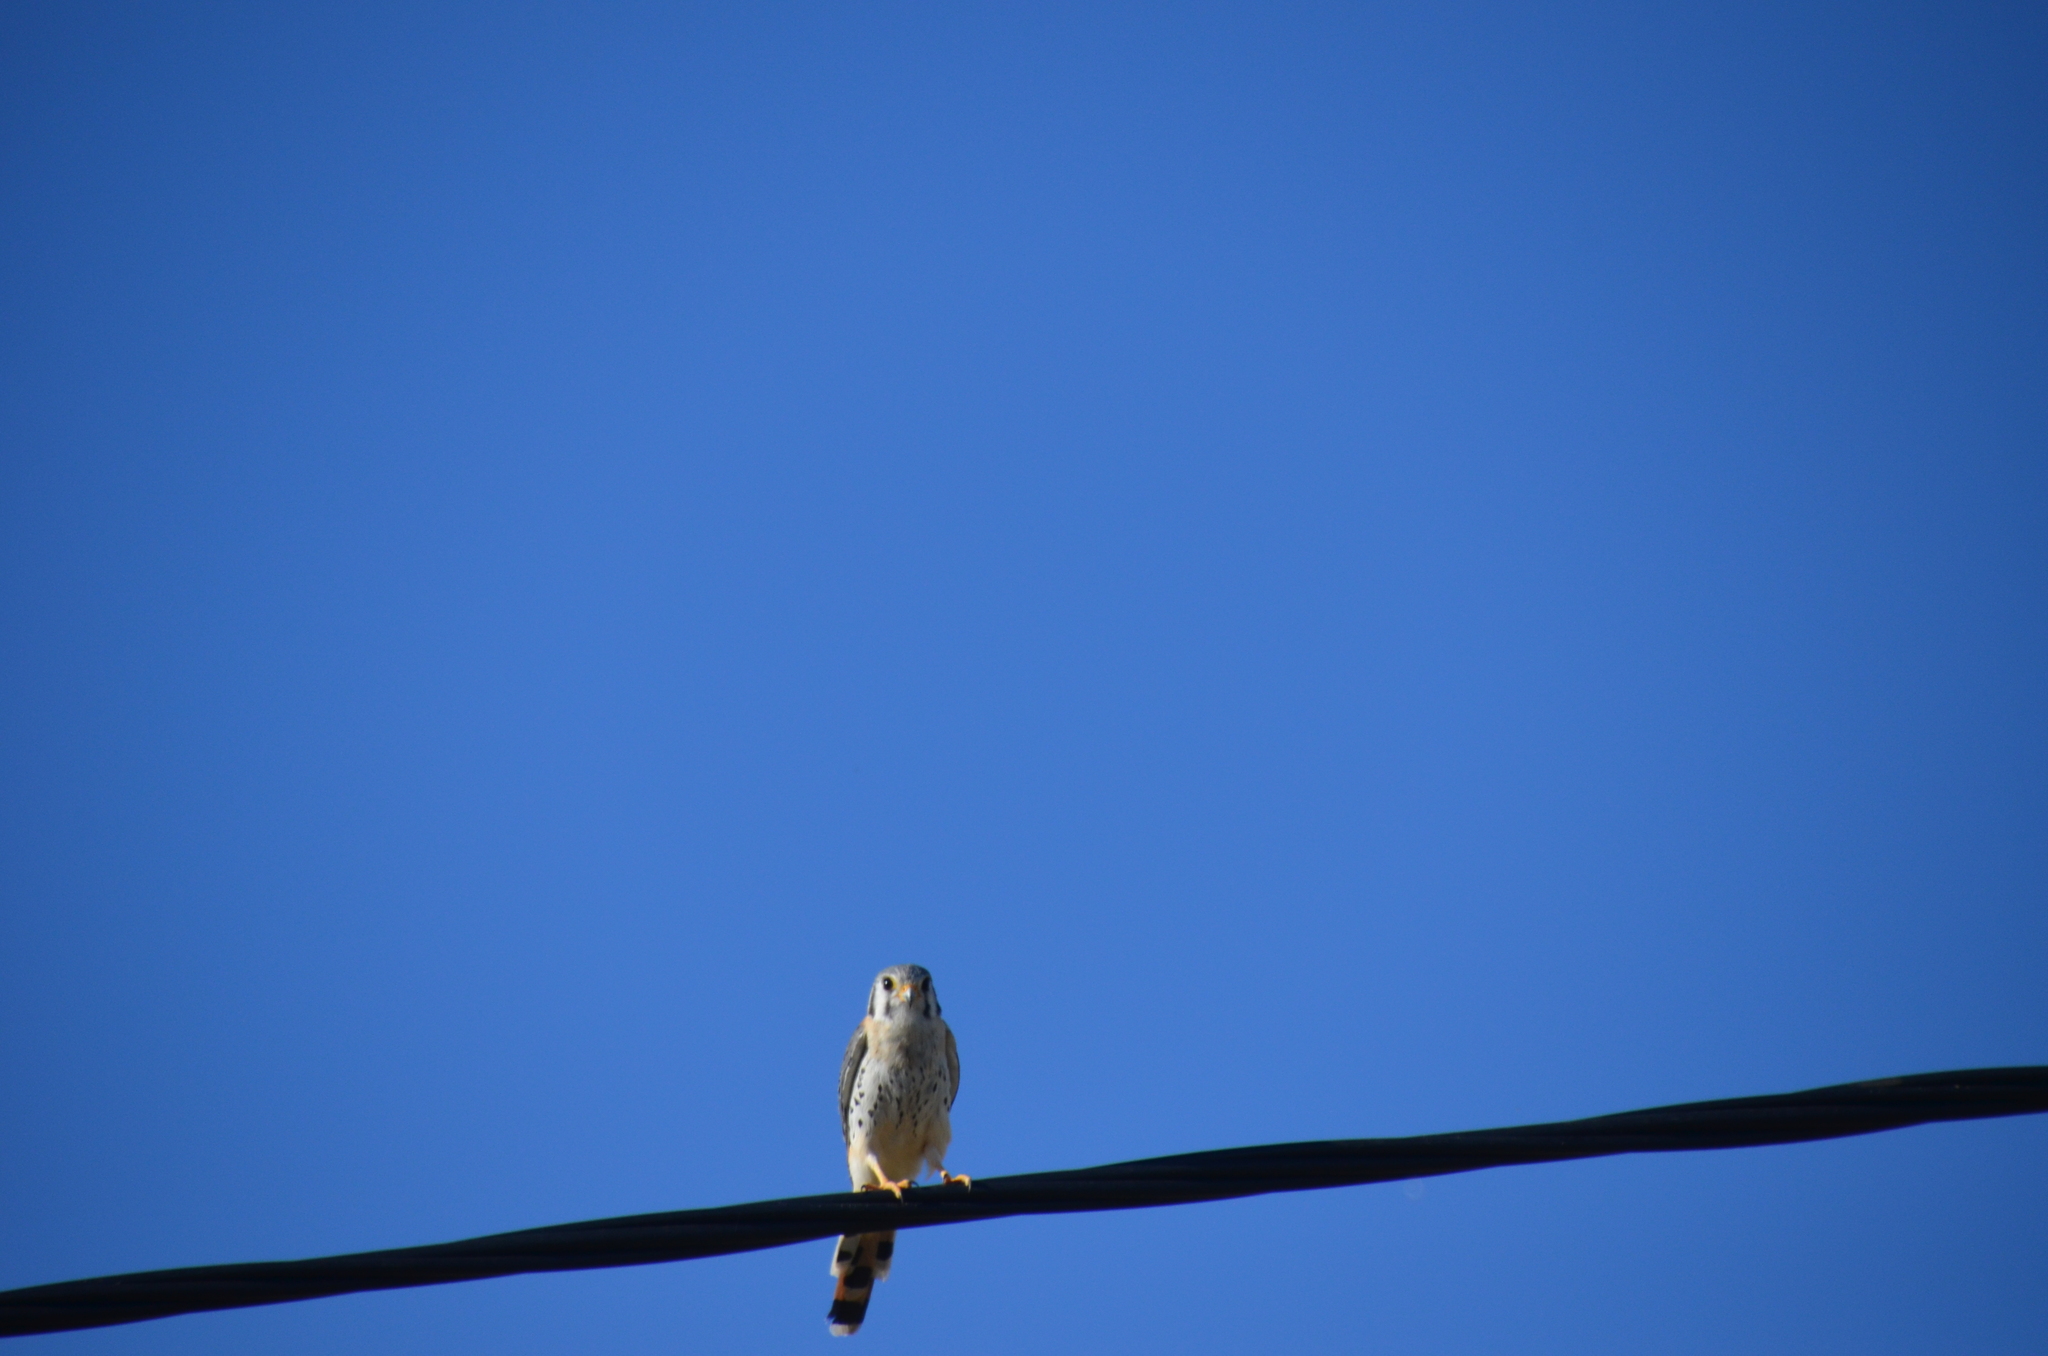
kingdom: Animalia
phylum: Chordata
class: Aves
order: Falconiformes
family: Falconidae
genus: Falco
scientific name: Falco sparverius
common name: American kestrel
